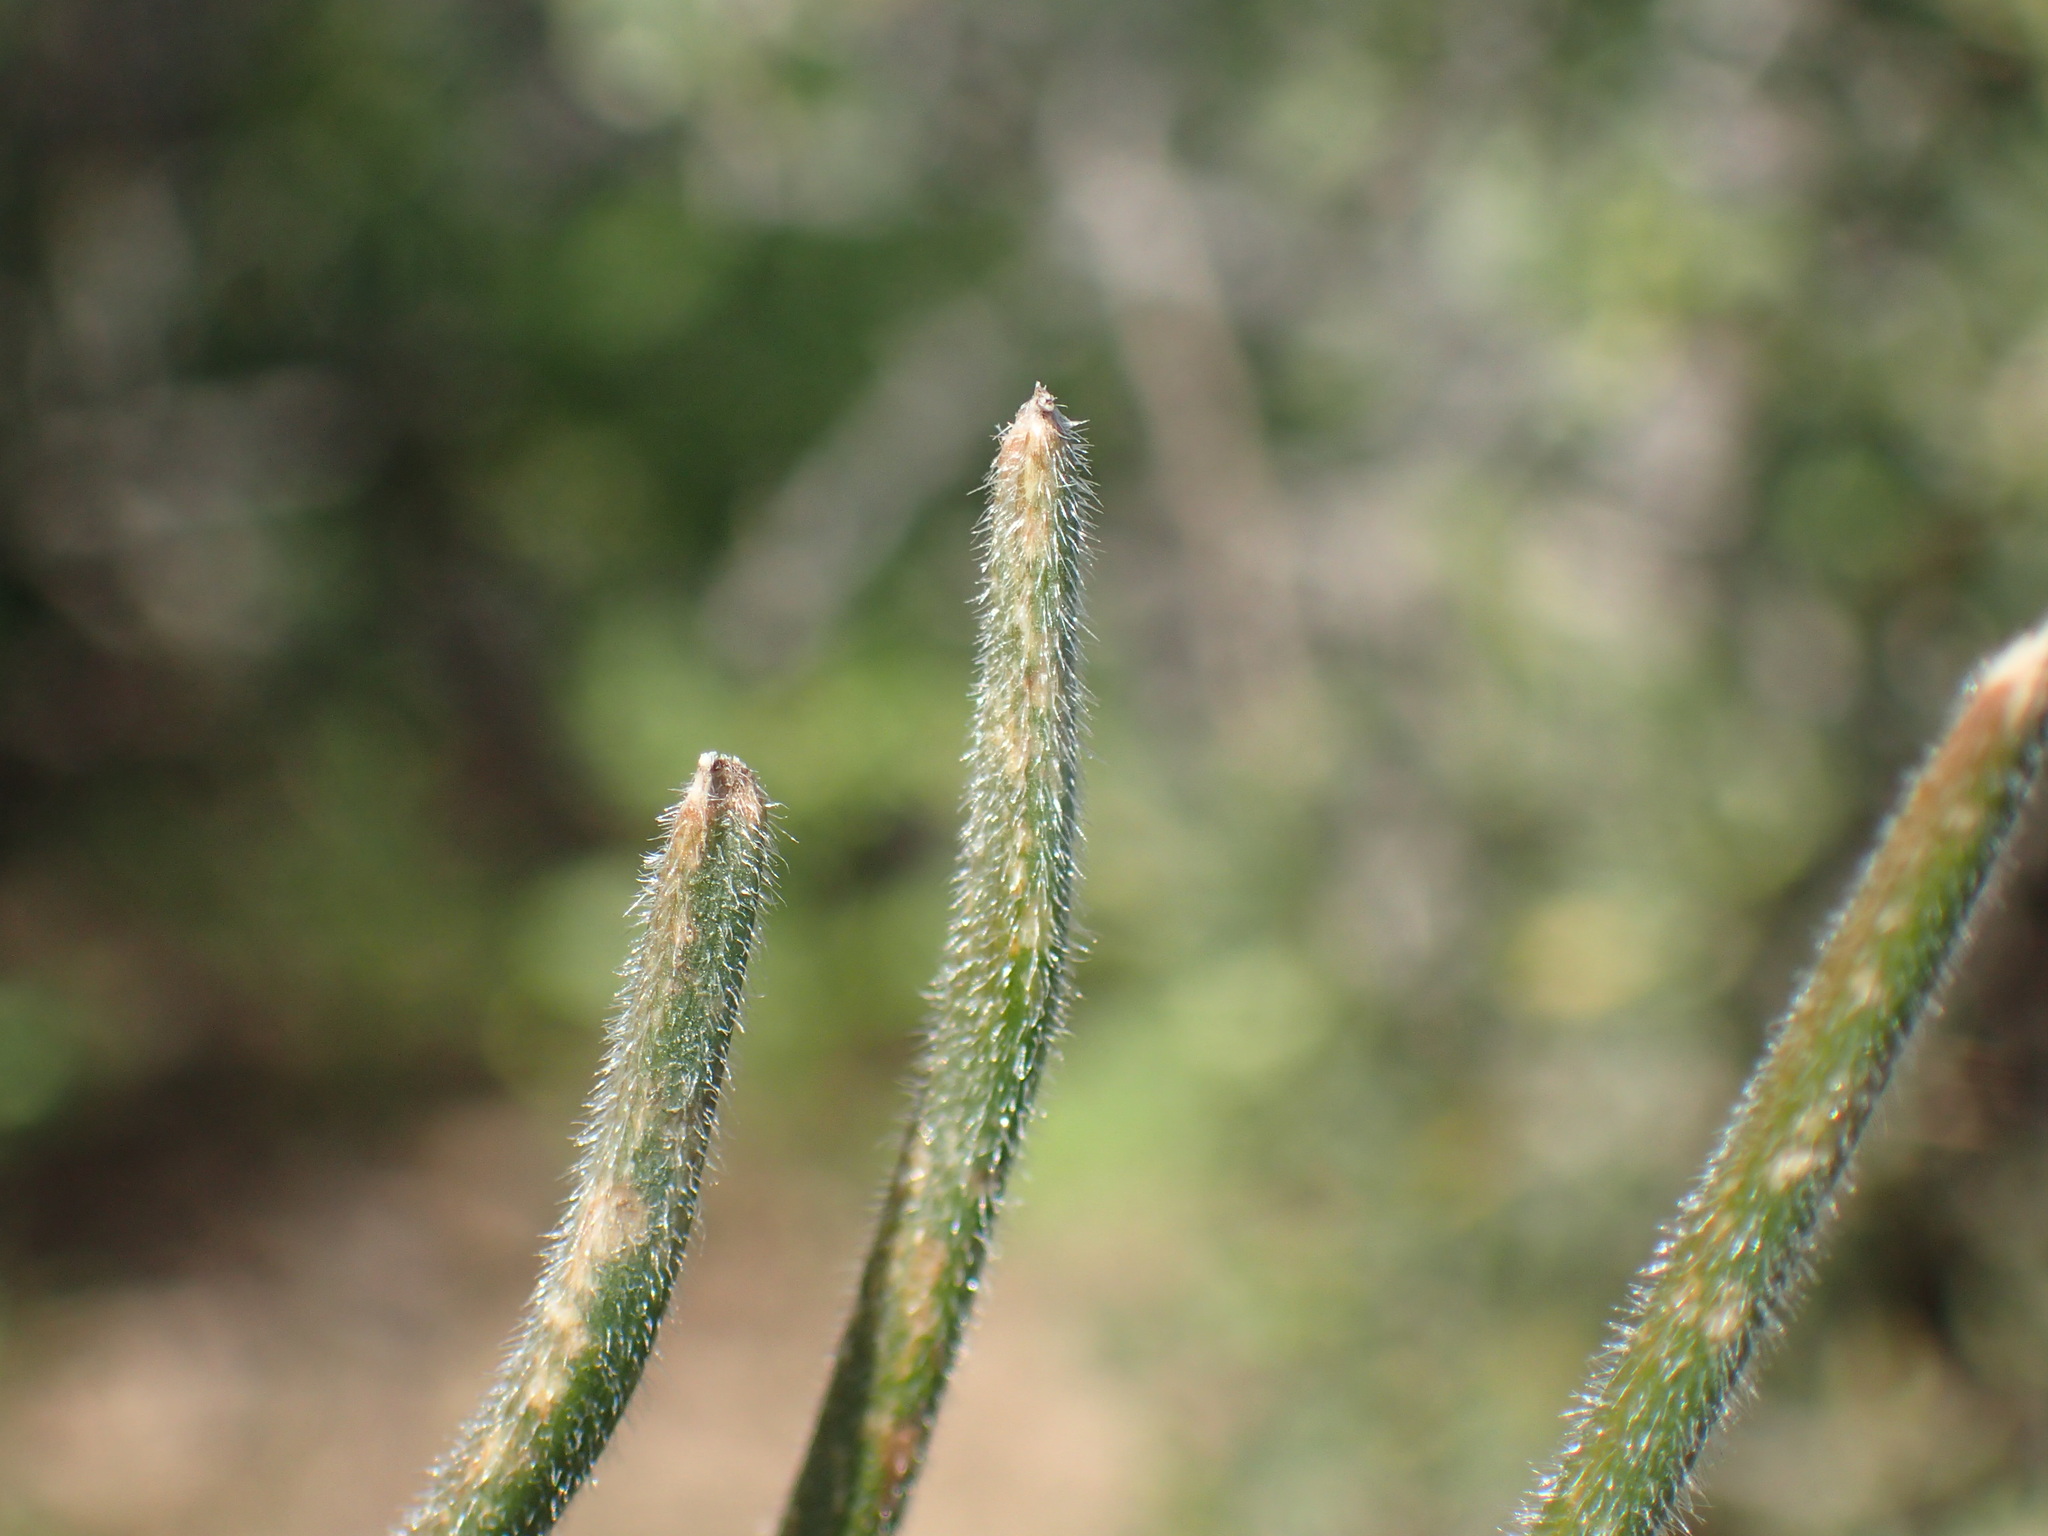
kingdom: Plantae
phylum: Tracheophyta
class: Liliopsida
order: Asparagales
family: Asphodelaceae
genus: Trachyandra
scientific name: Trachyandra thyrsoidea
